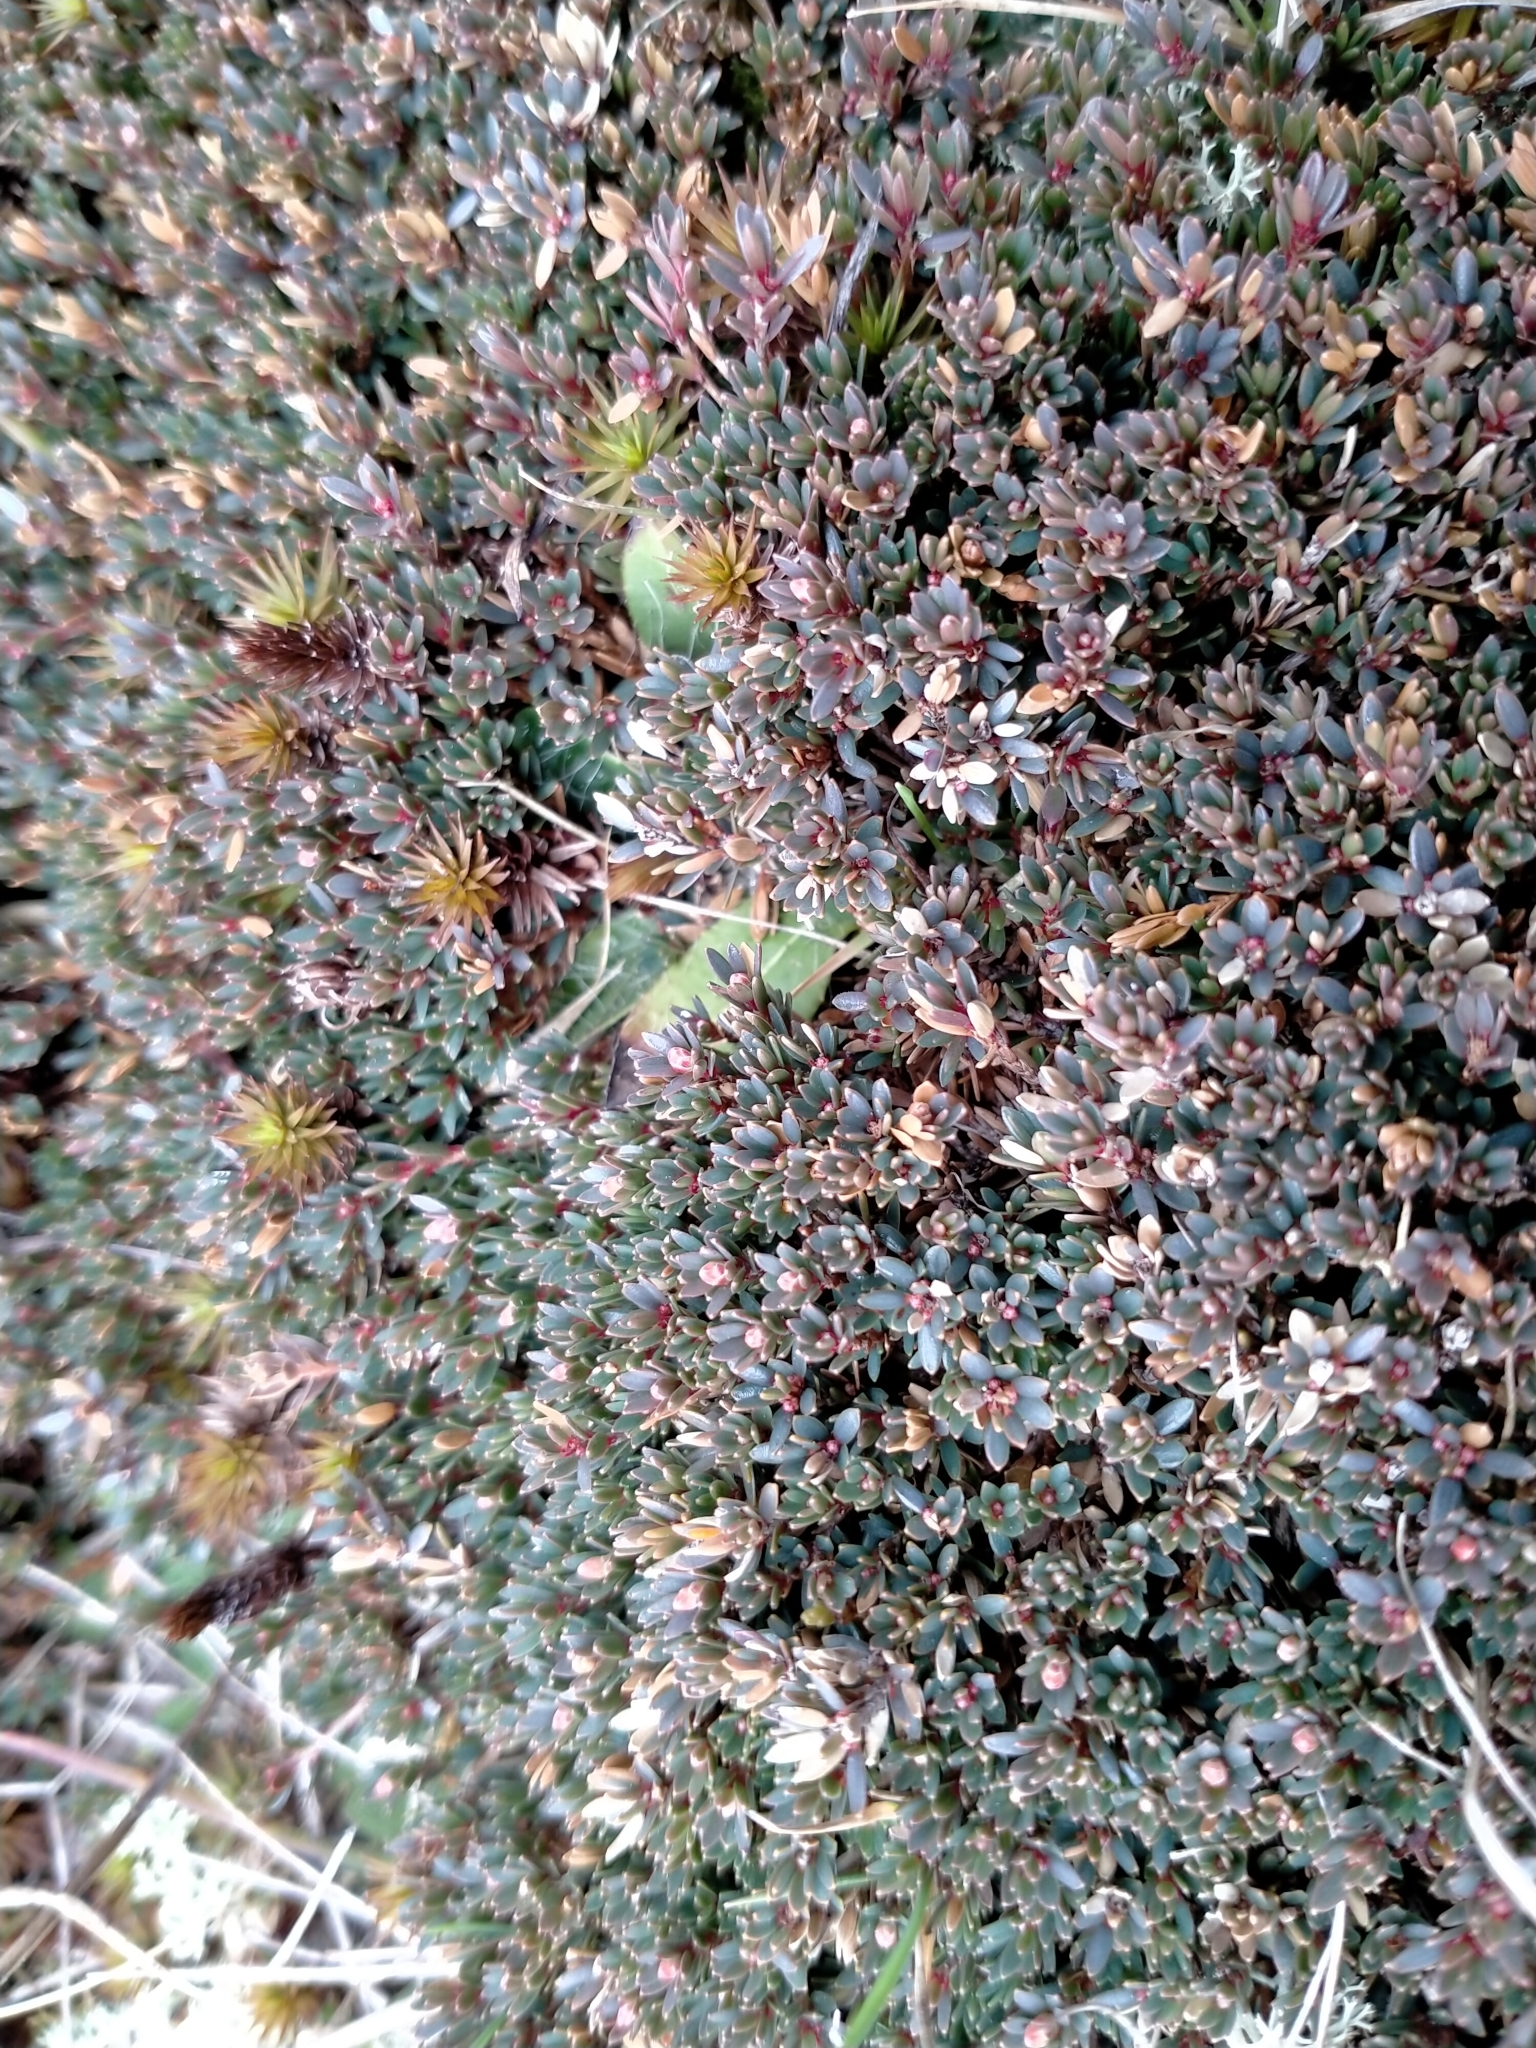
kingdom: Plantae
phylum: Tracheophyta
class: Magnoliopsida
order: Ericales
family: Ericaceae
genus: Pentachondra
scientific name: Pentachondra pumila
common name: Carpet-heath
